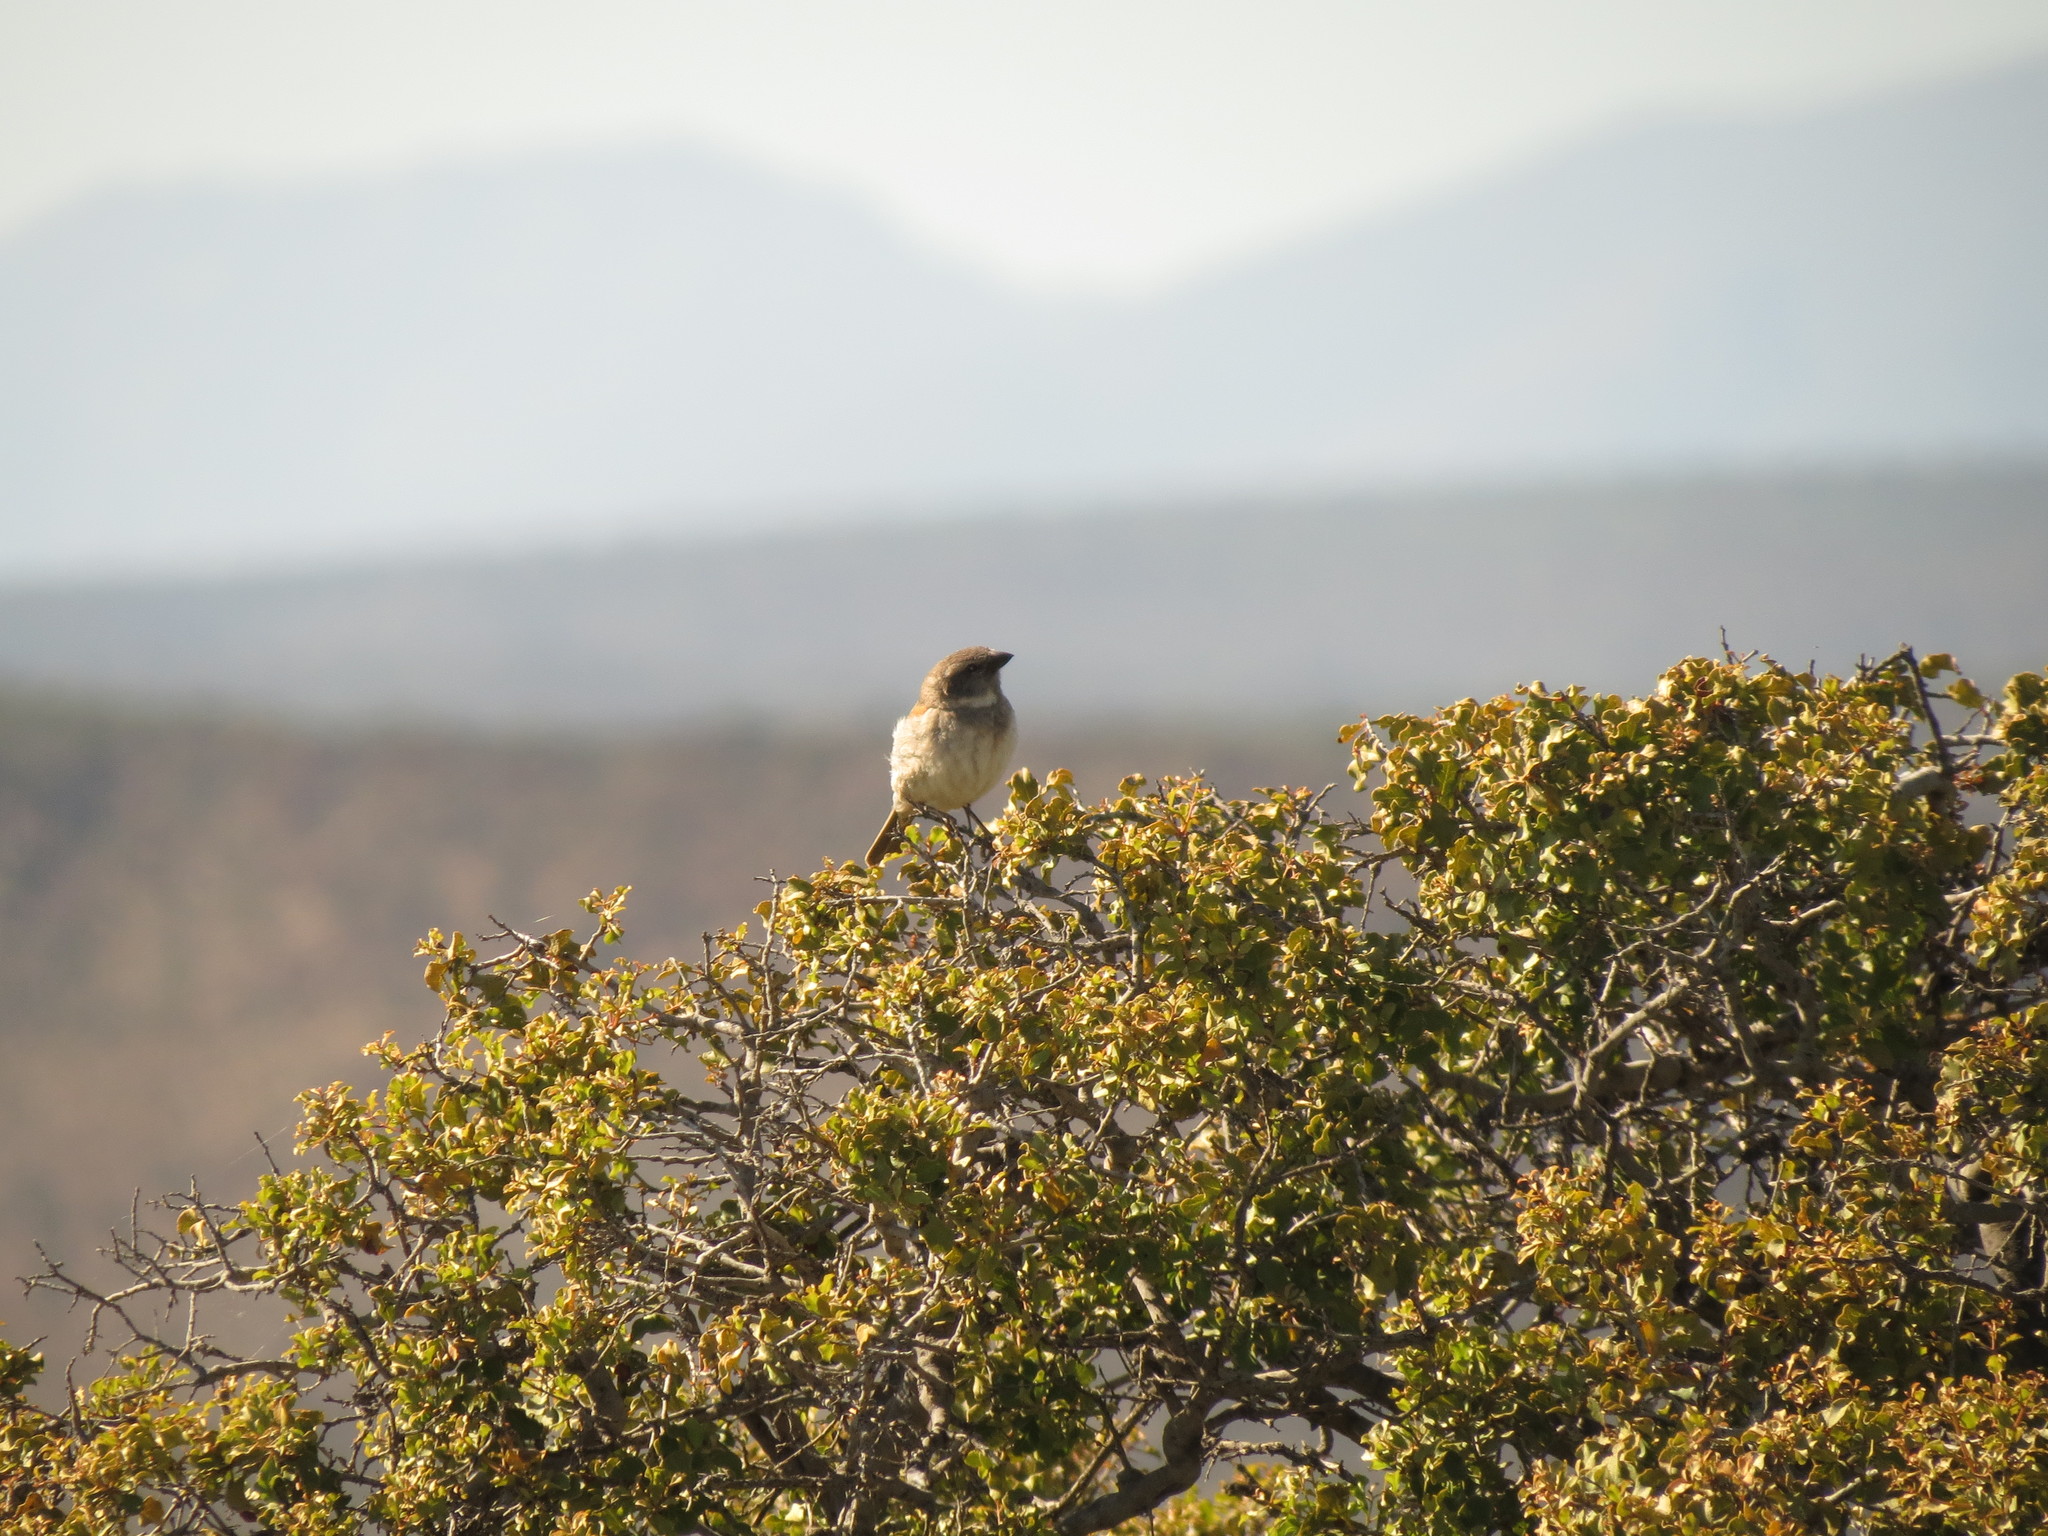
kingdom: Animalia
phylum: Chordata
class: Aves
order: Passeriformes
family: Passeridae
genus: Passer
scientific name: Passer melanurus
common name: Cape sparrow
